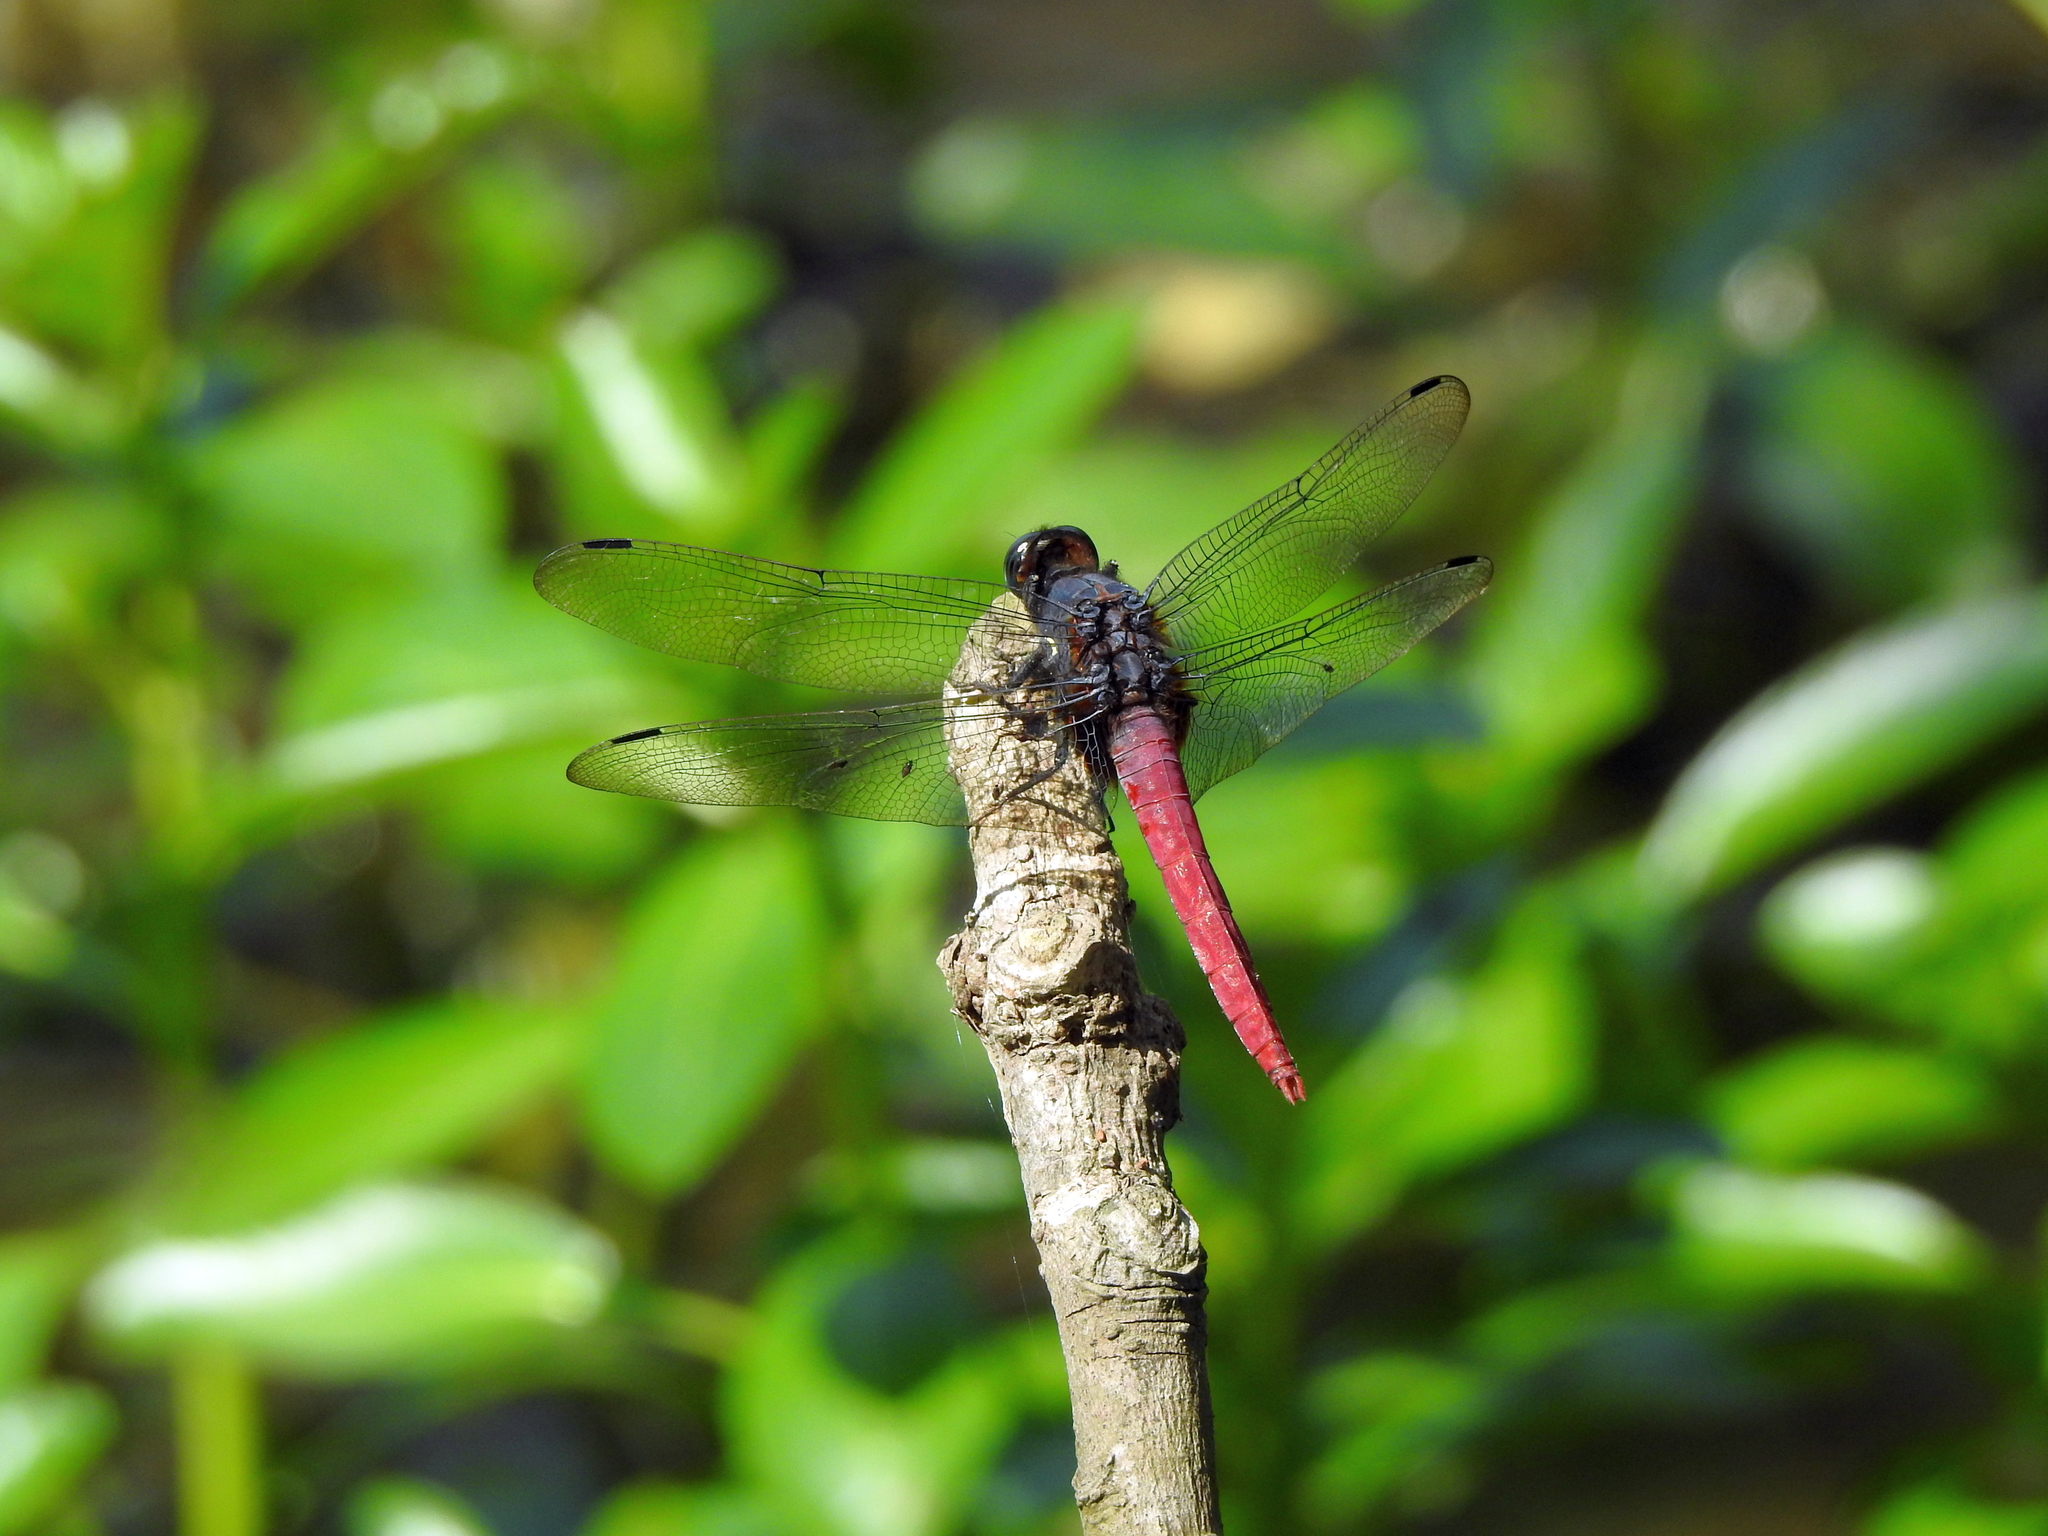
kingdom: Animalia
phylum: Arthropoda
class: Insecta
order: Odonata
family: Libellulidae
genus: Orthetrum
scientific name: Orthetrum pruinosum
